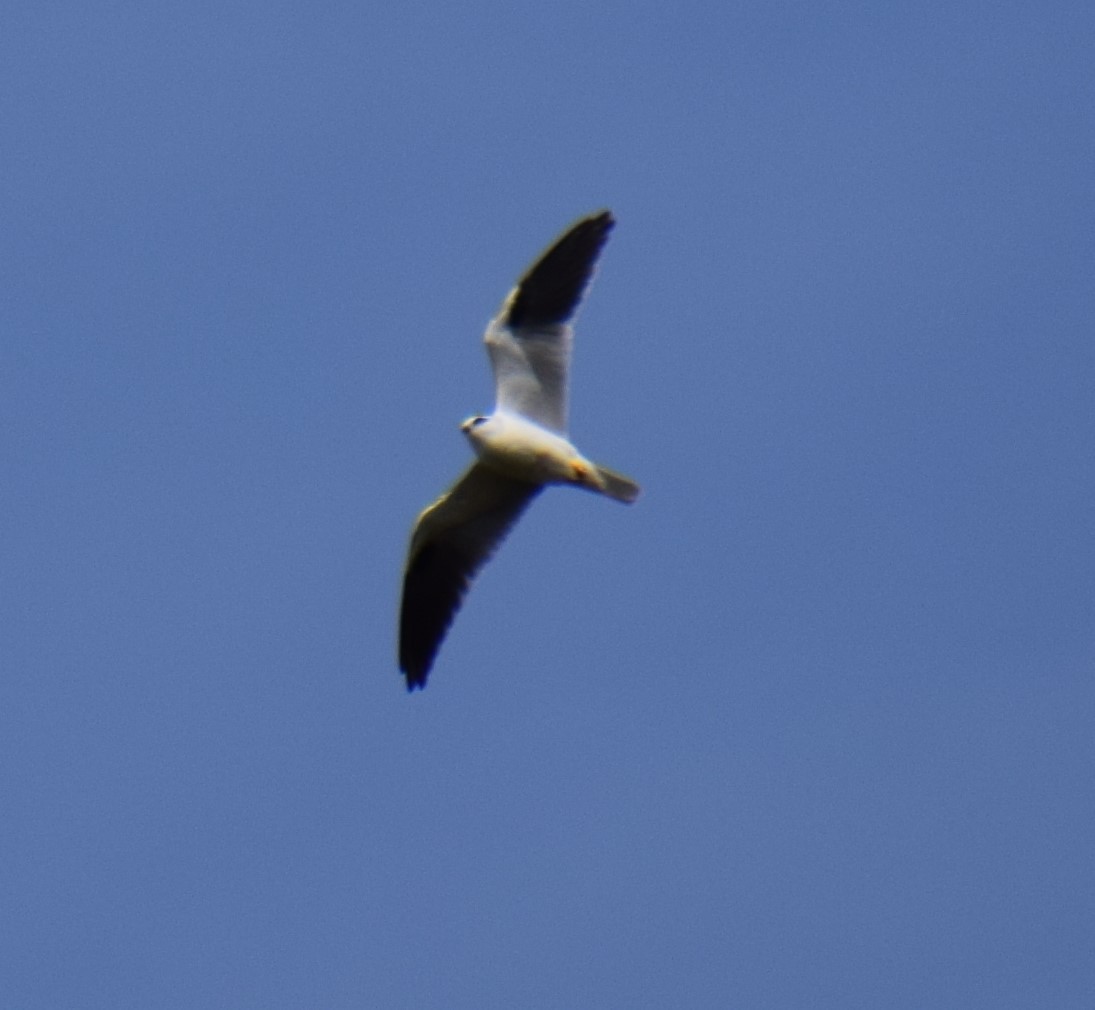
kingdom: Animalia
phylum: Chordata
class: Aves
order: Accipitriformes
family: Accipitridae
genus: Elanus
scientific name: Elanus axillaris
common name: Black-shouldered kite
